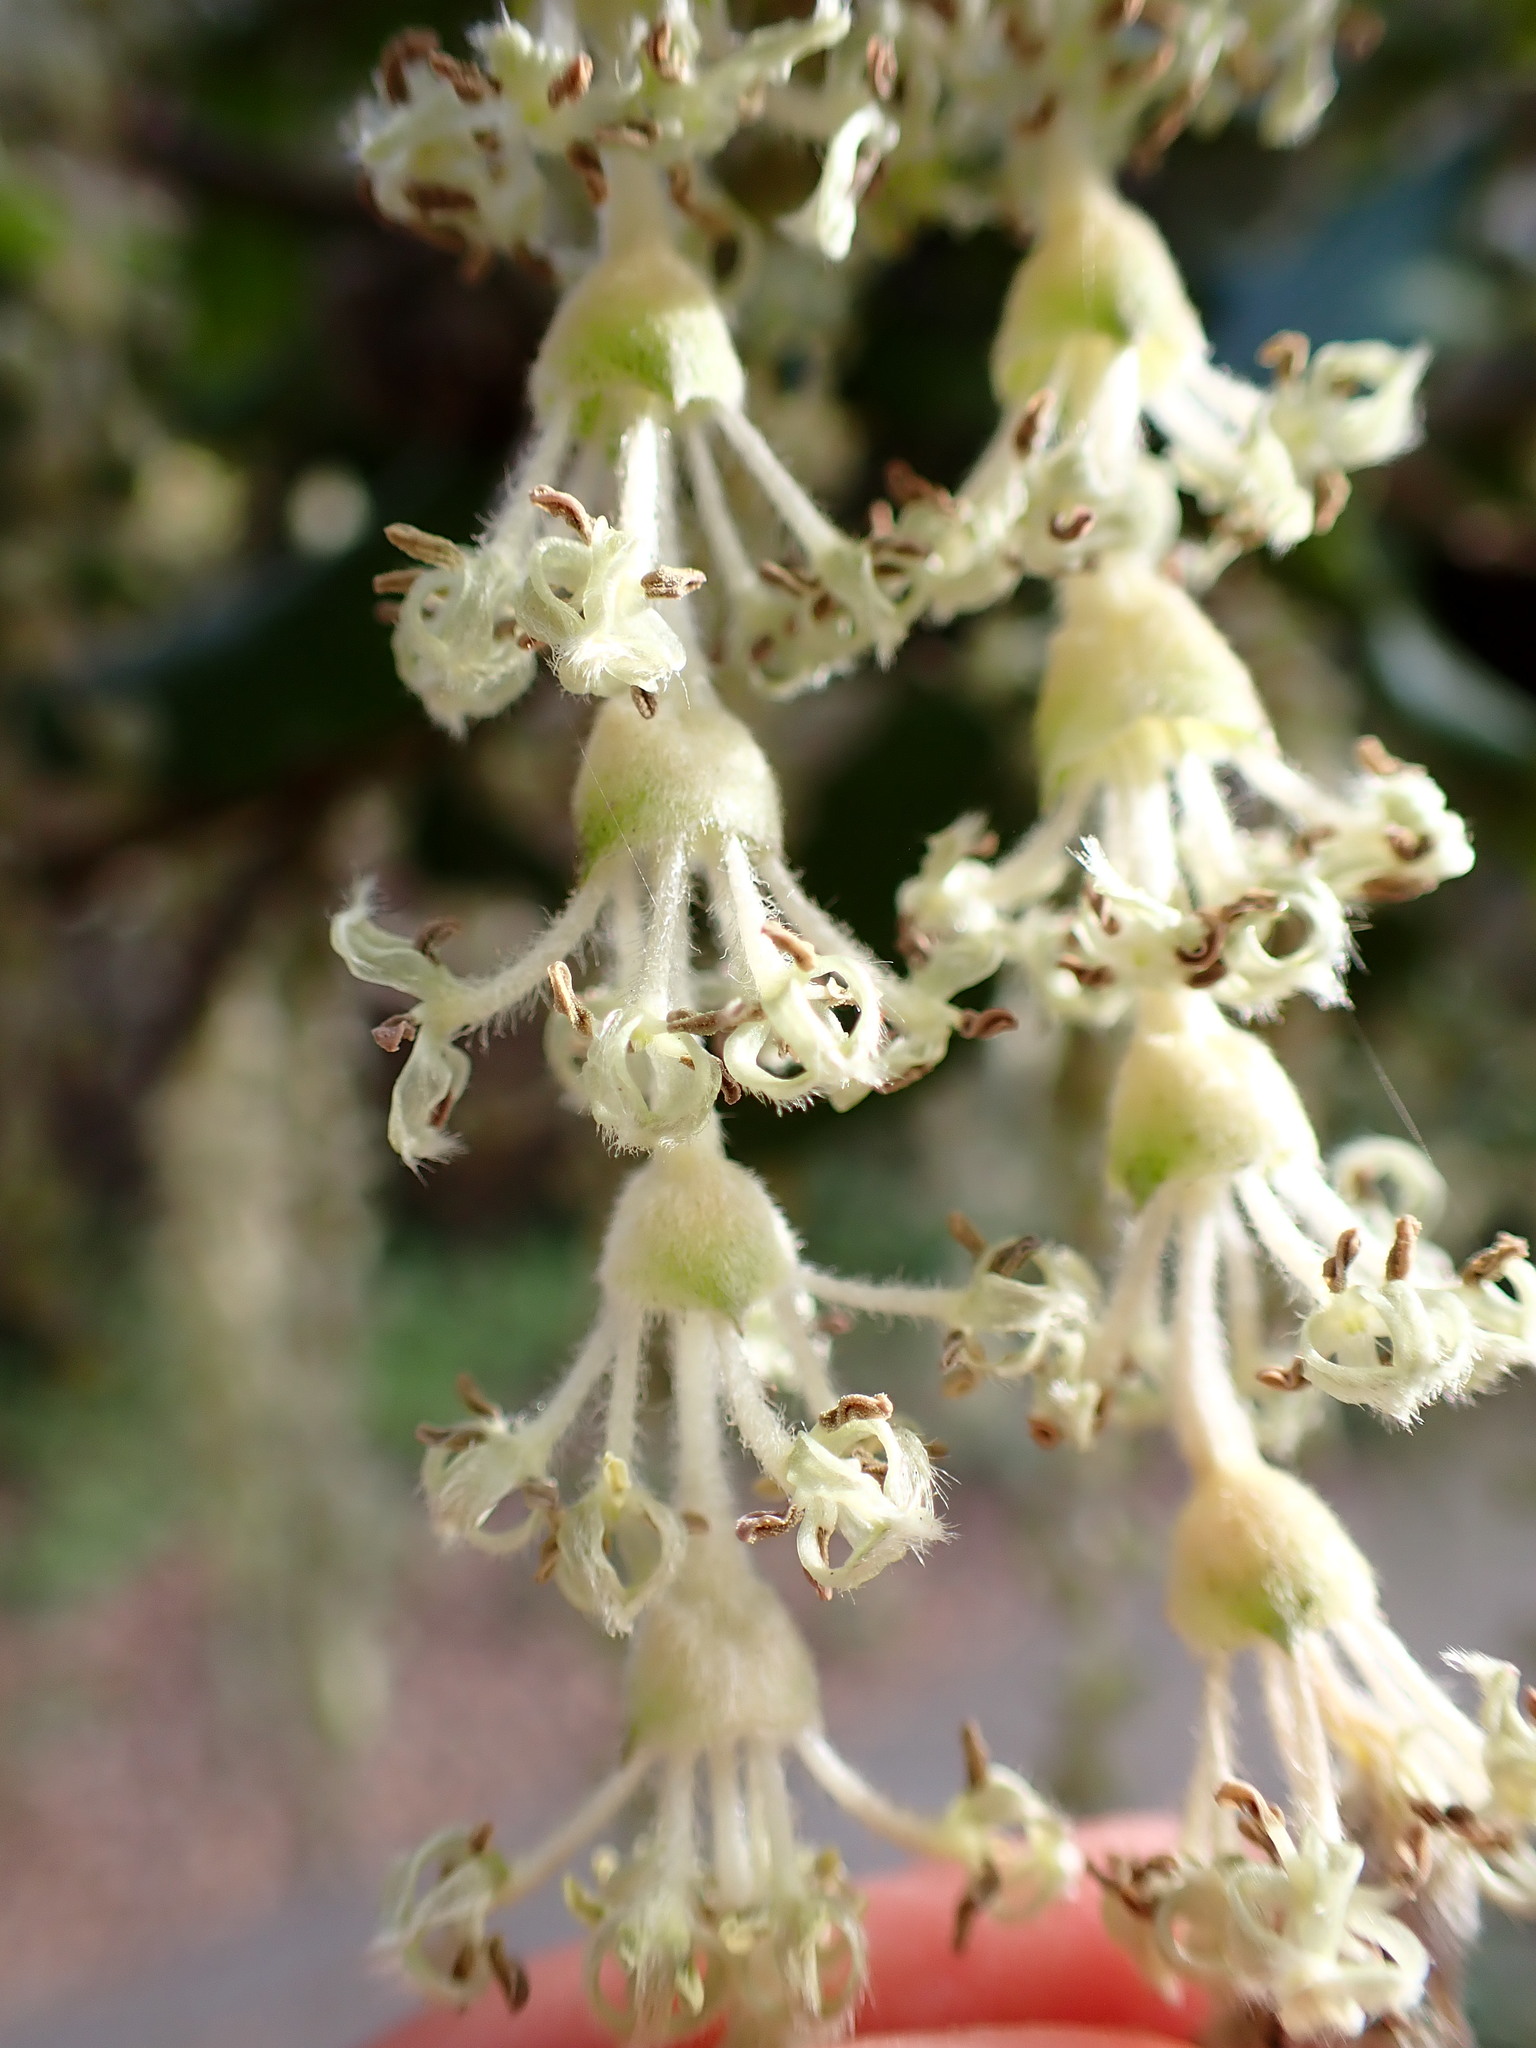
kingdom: Plantae
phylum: Tracheophyta
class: Magnoliopsida
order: Garryales
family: Garryaceae
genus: Garrya
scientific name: Garrya elliptica
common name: Silk-tassel
